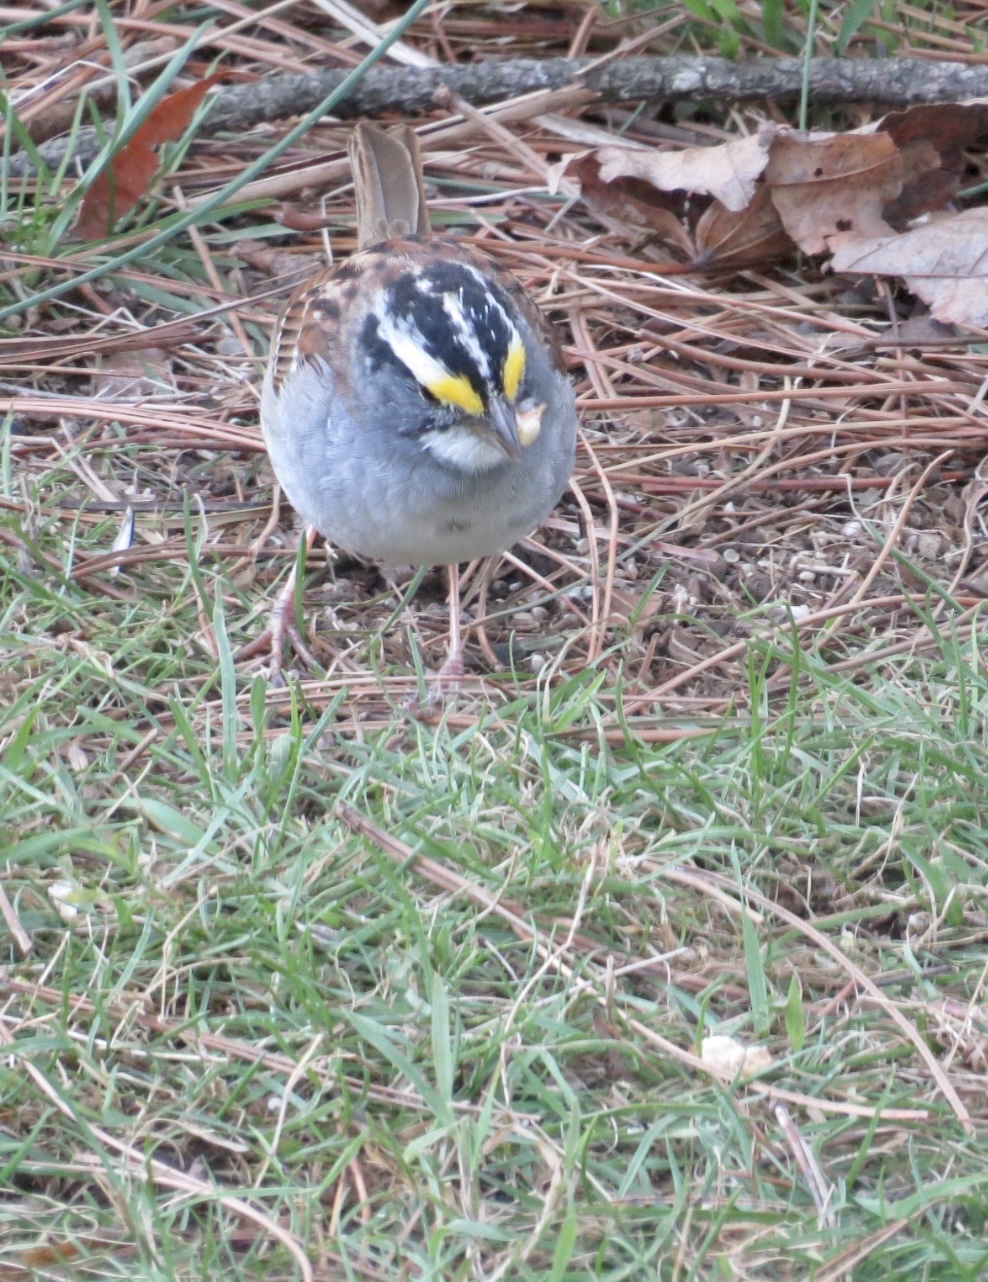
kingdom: Animalia
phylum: Chordata
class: Aves
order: Passeriformes
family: Passerellidae
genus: Zonotrichia
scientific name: Zonotrichia albicollis
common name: White-throated sparrow
